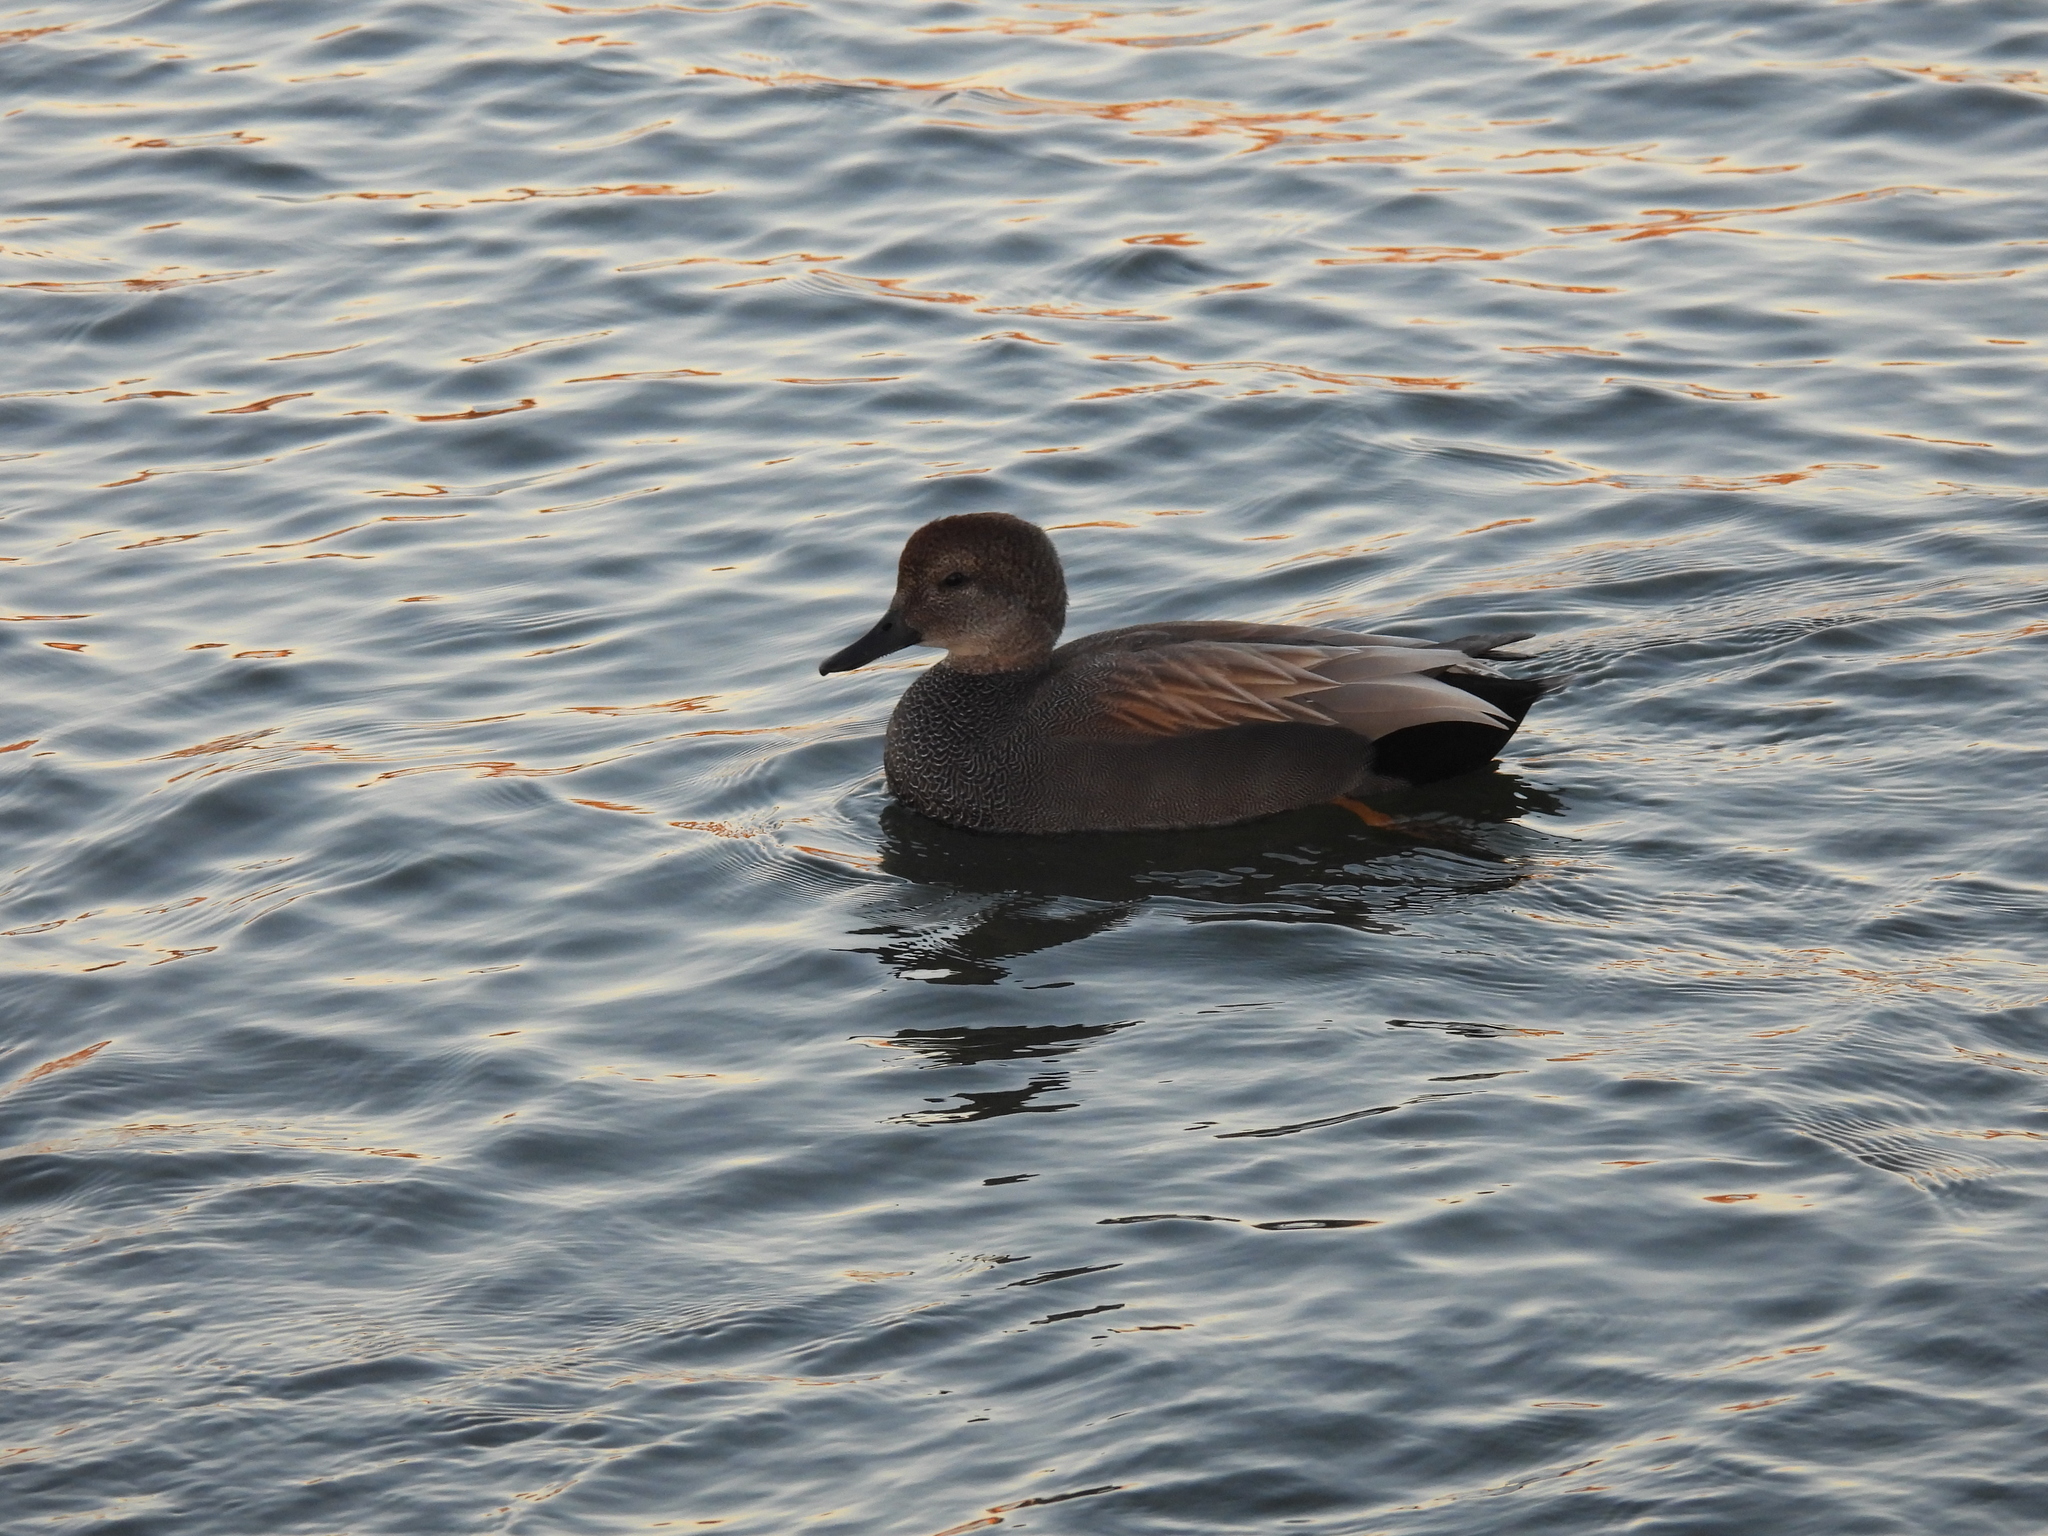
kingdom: Animalia
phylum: Chordata
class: Aves
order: Anseriformes
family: Anatidae
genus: Mareca
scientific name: Mareca strepera
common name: Gadwall
